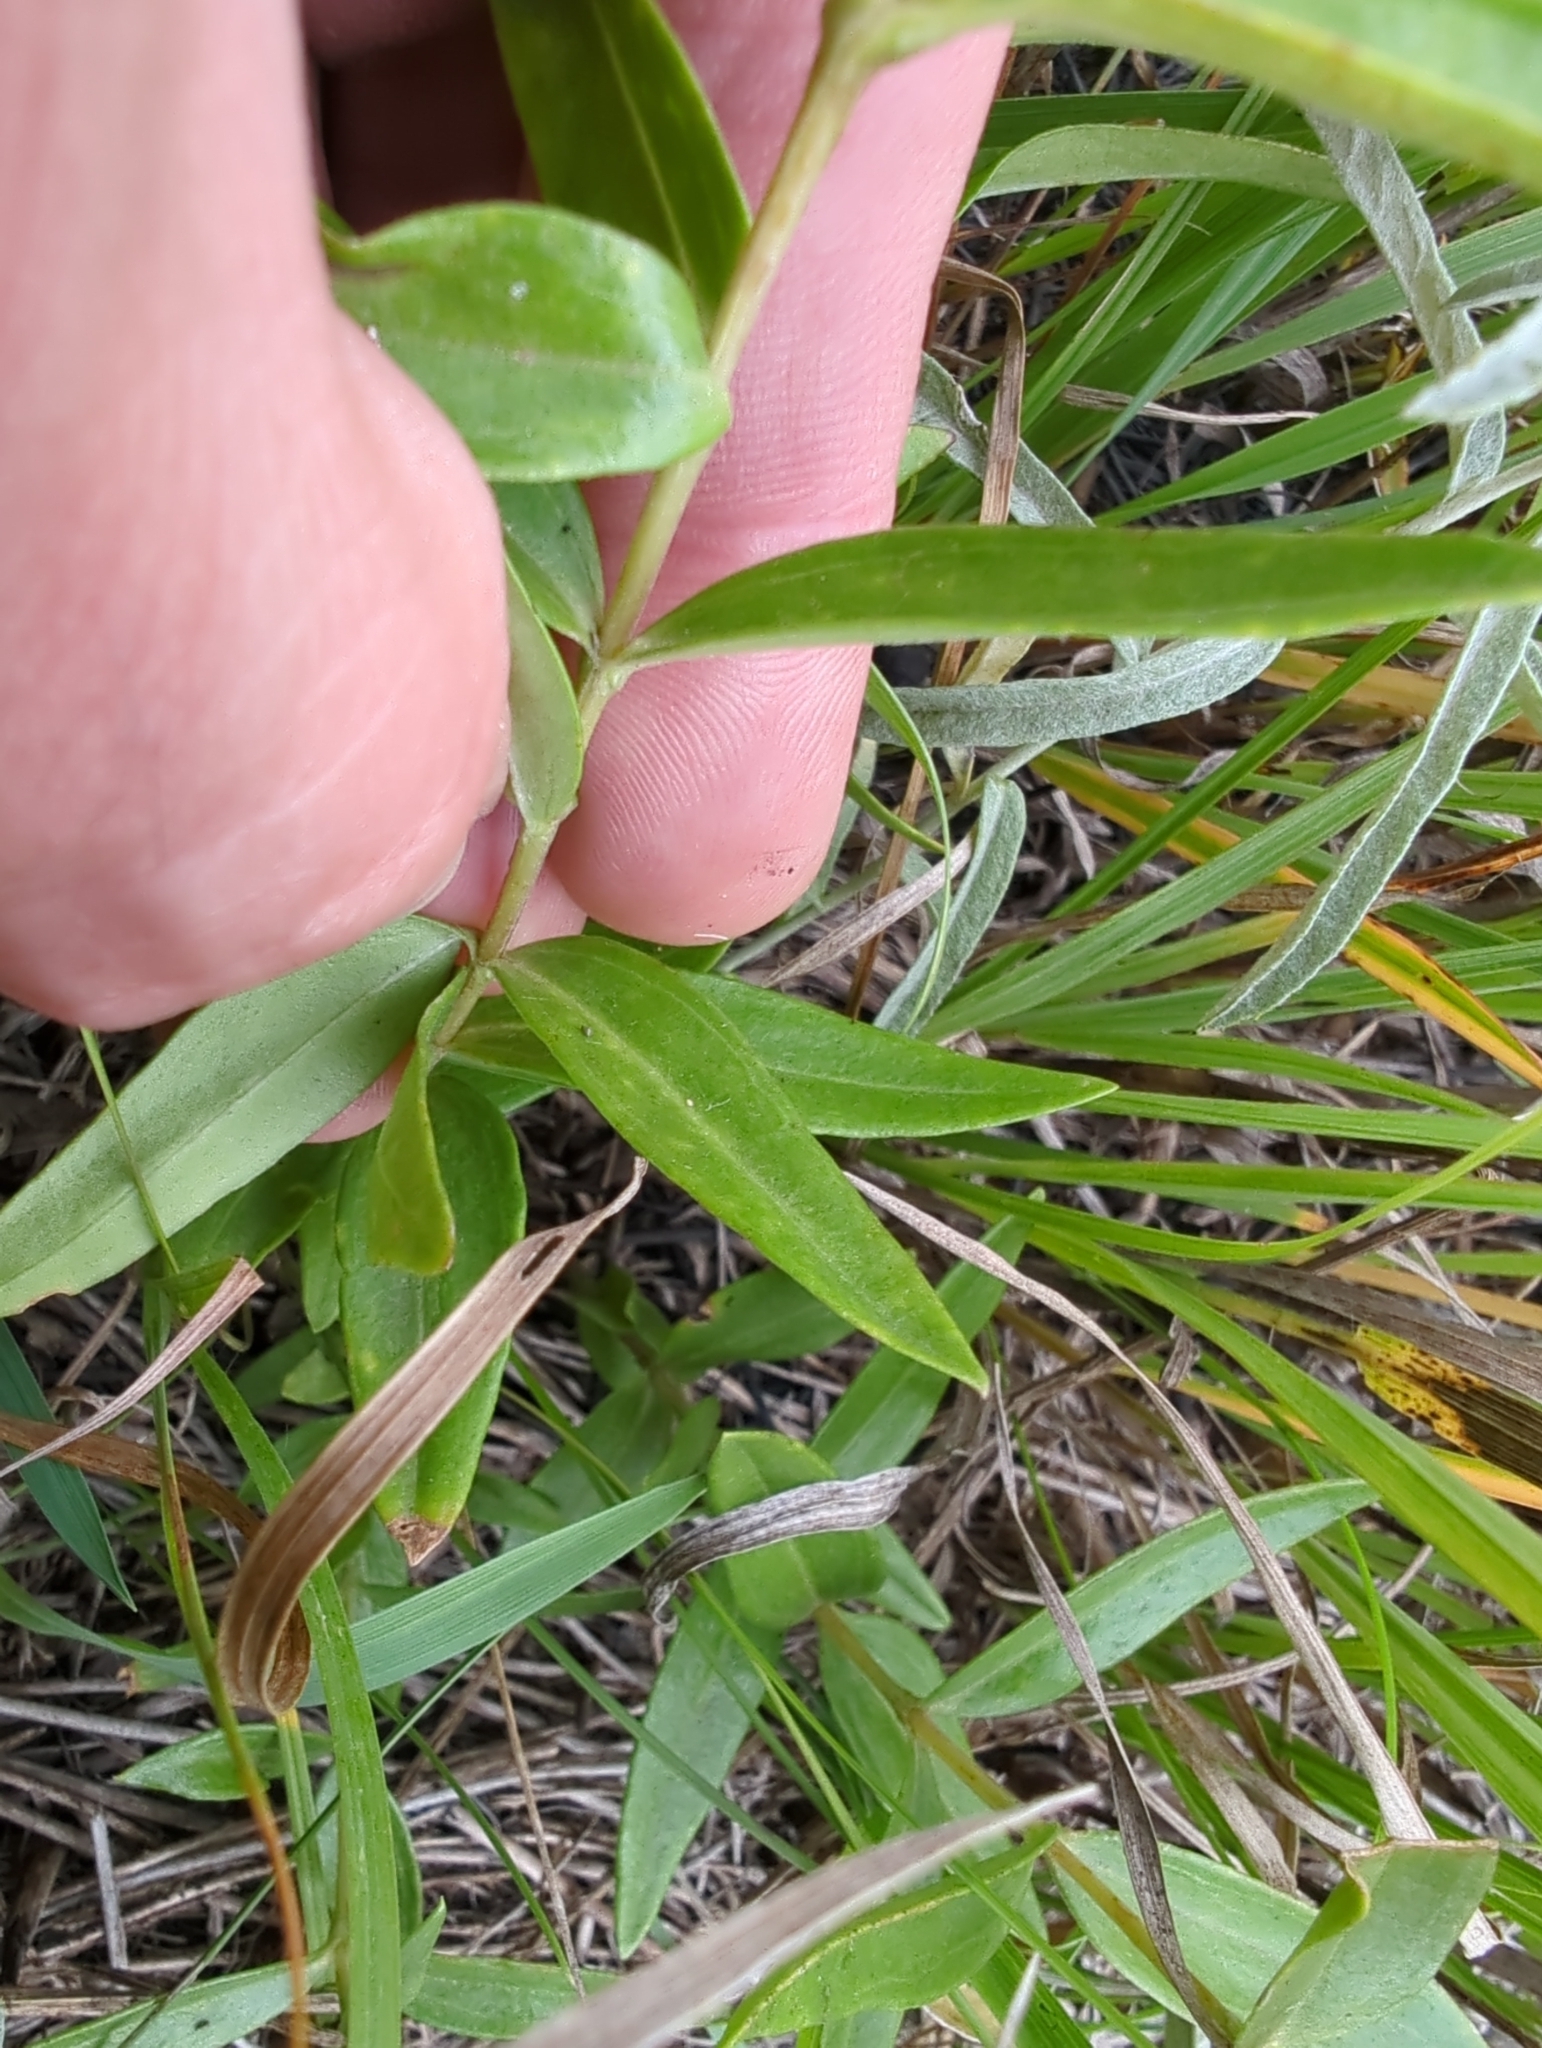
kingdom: Plantae
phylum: Tracheophyta
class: Magnoliopsida
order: Gentianales
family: Gentianaceae
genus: Gentiana
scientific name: Gentiana puberulenta
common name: Downy gentian
